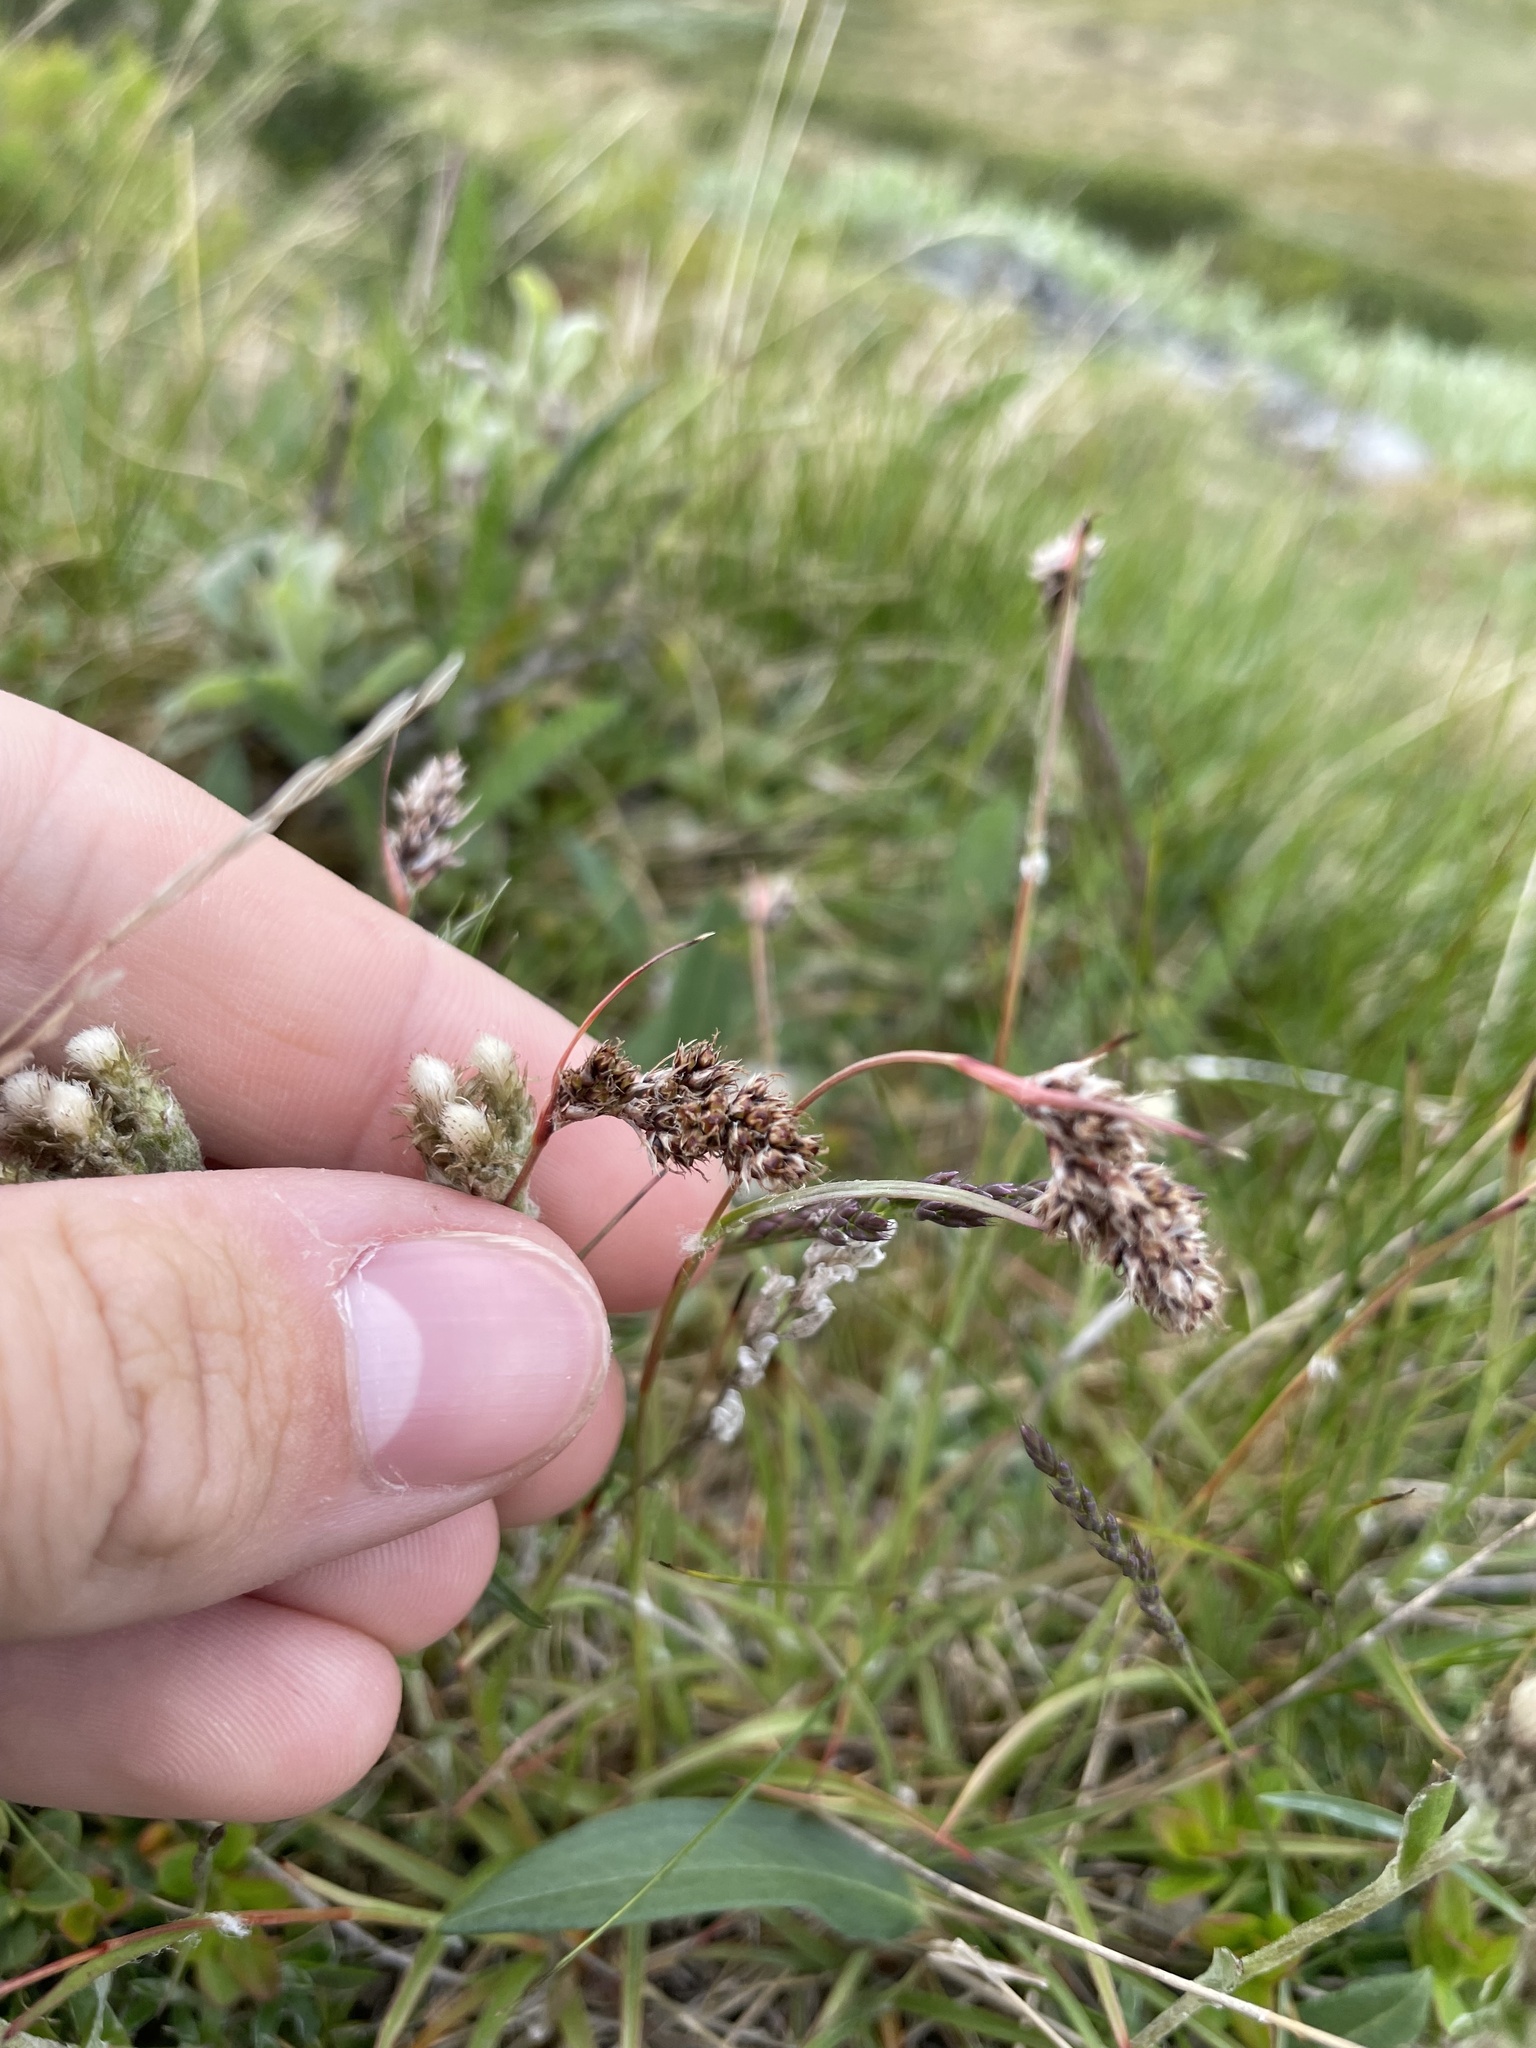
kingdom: Plantae
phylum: Tracheophyta
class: Liliopsida
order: Poales
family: Juncaceae
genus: Luzula
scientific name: Luzula spicata
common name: Spiked wood-rush
